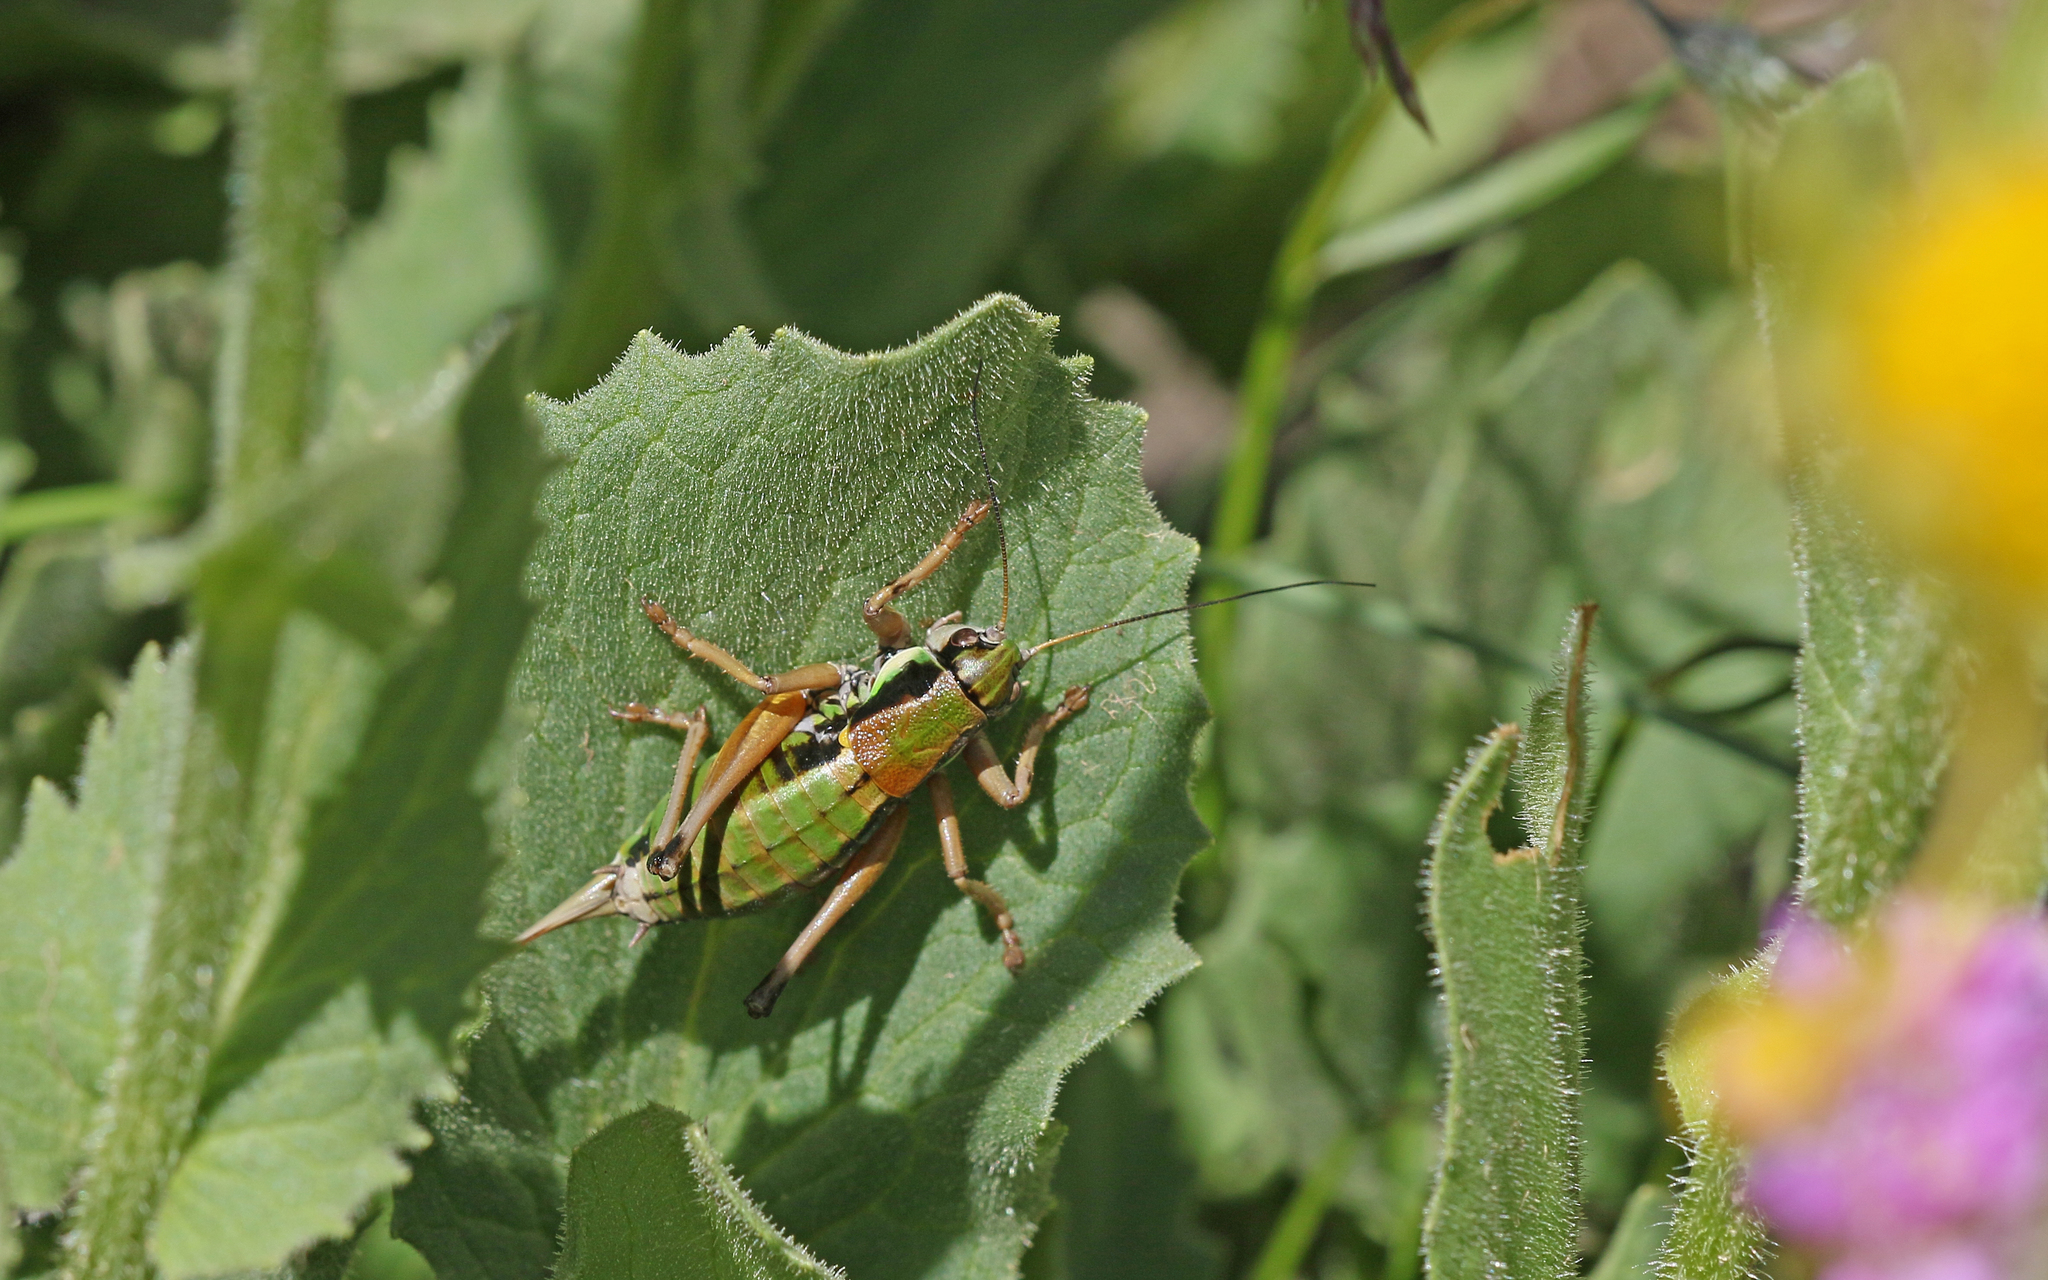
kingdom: Animalia
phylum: Arthropoda
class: Insecta
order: Orthoptera
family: Tettigoniidae
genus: Anonconotus
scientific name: Anonconotus occidentalis
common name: Western alpine bush-cricket
